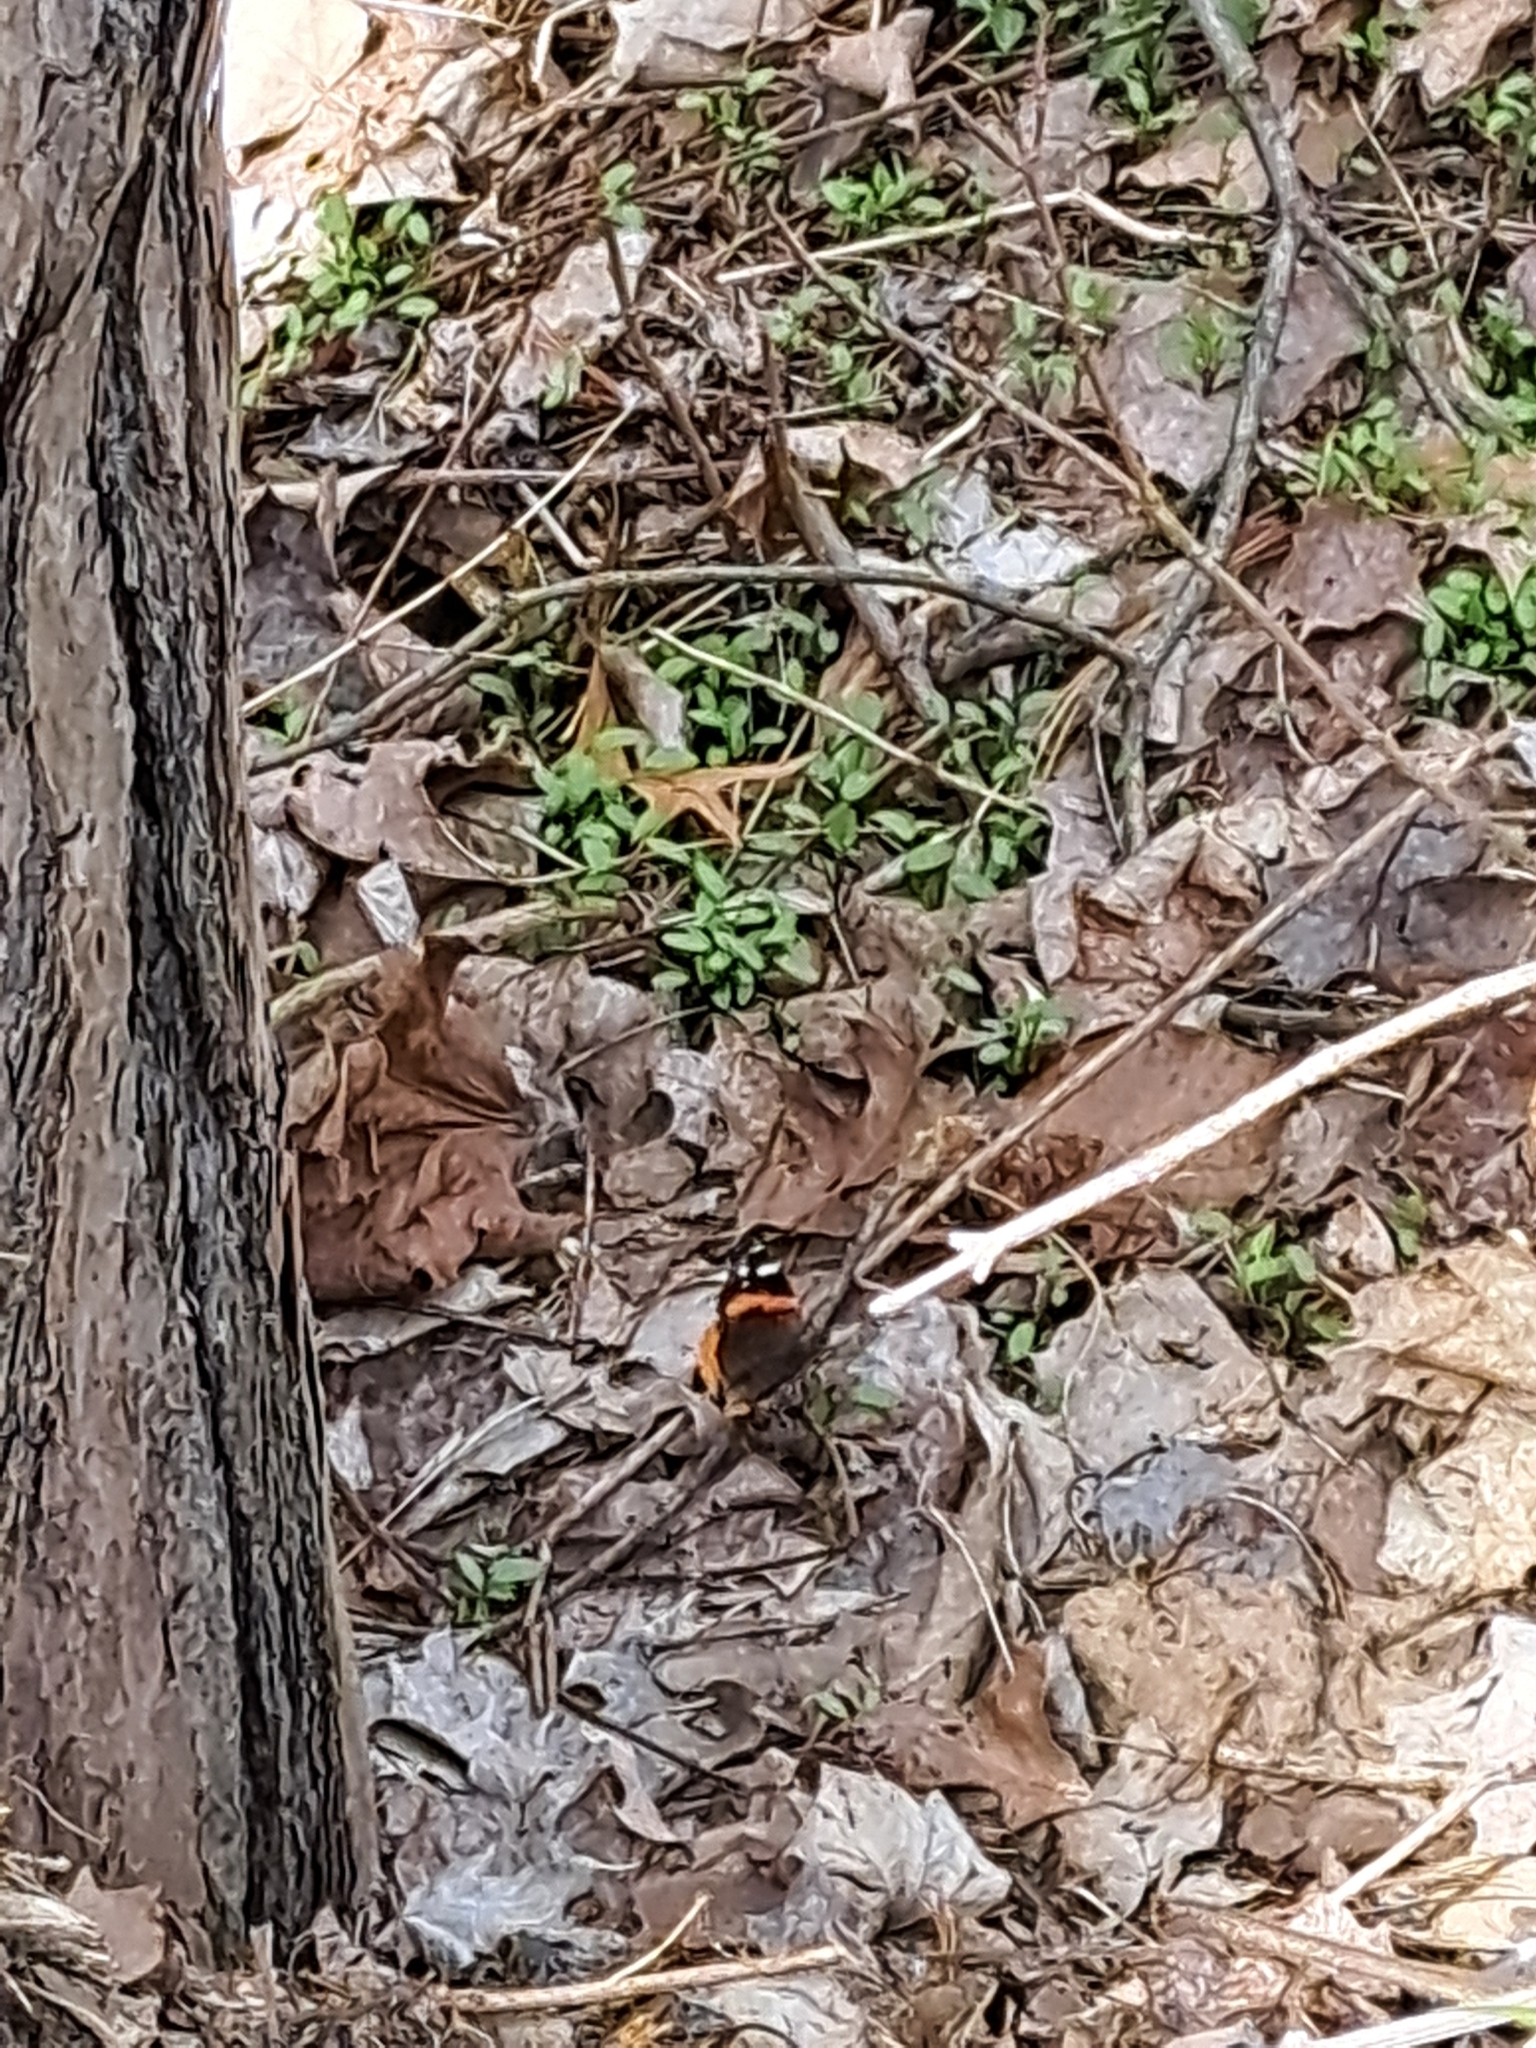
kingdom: Animalia
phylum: Arthropoda
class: Insecta
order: Lepidoptera
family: Nymphalidae
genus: Vanessa
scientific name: Vanessa atalanta
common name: Red admiral
